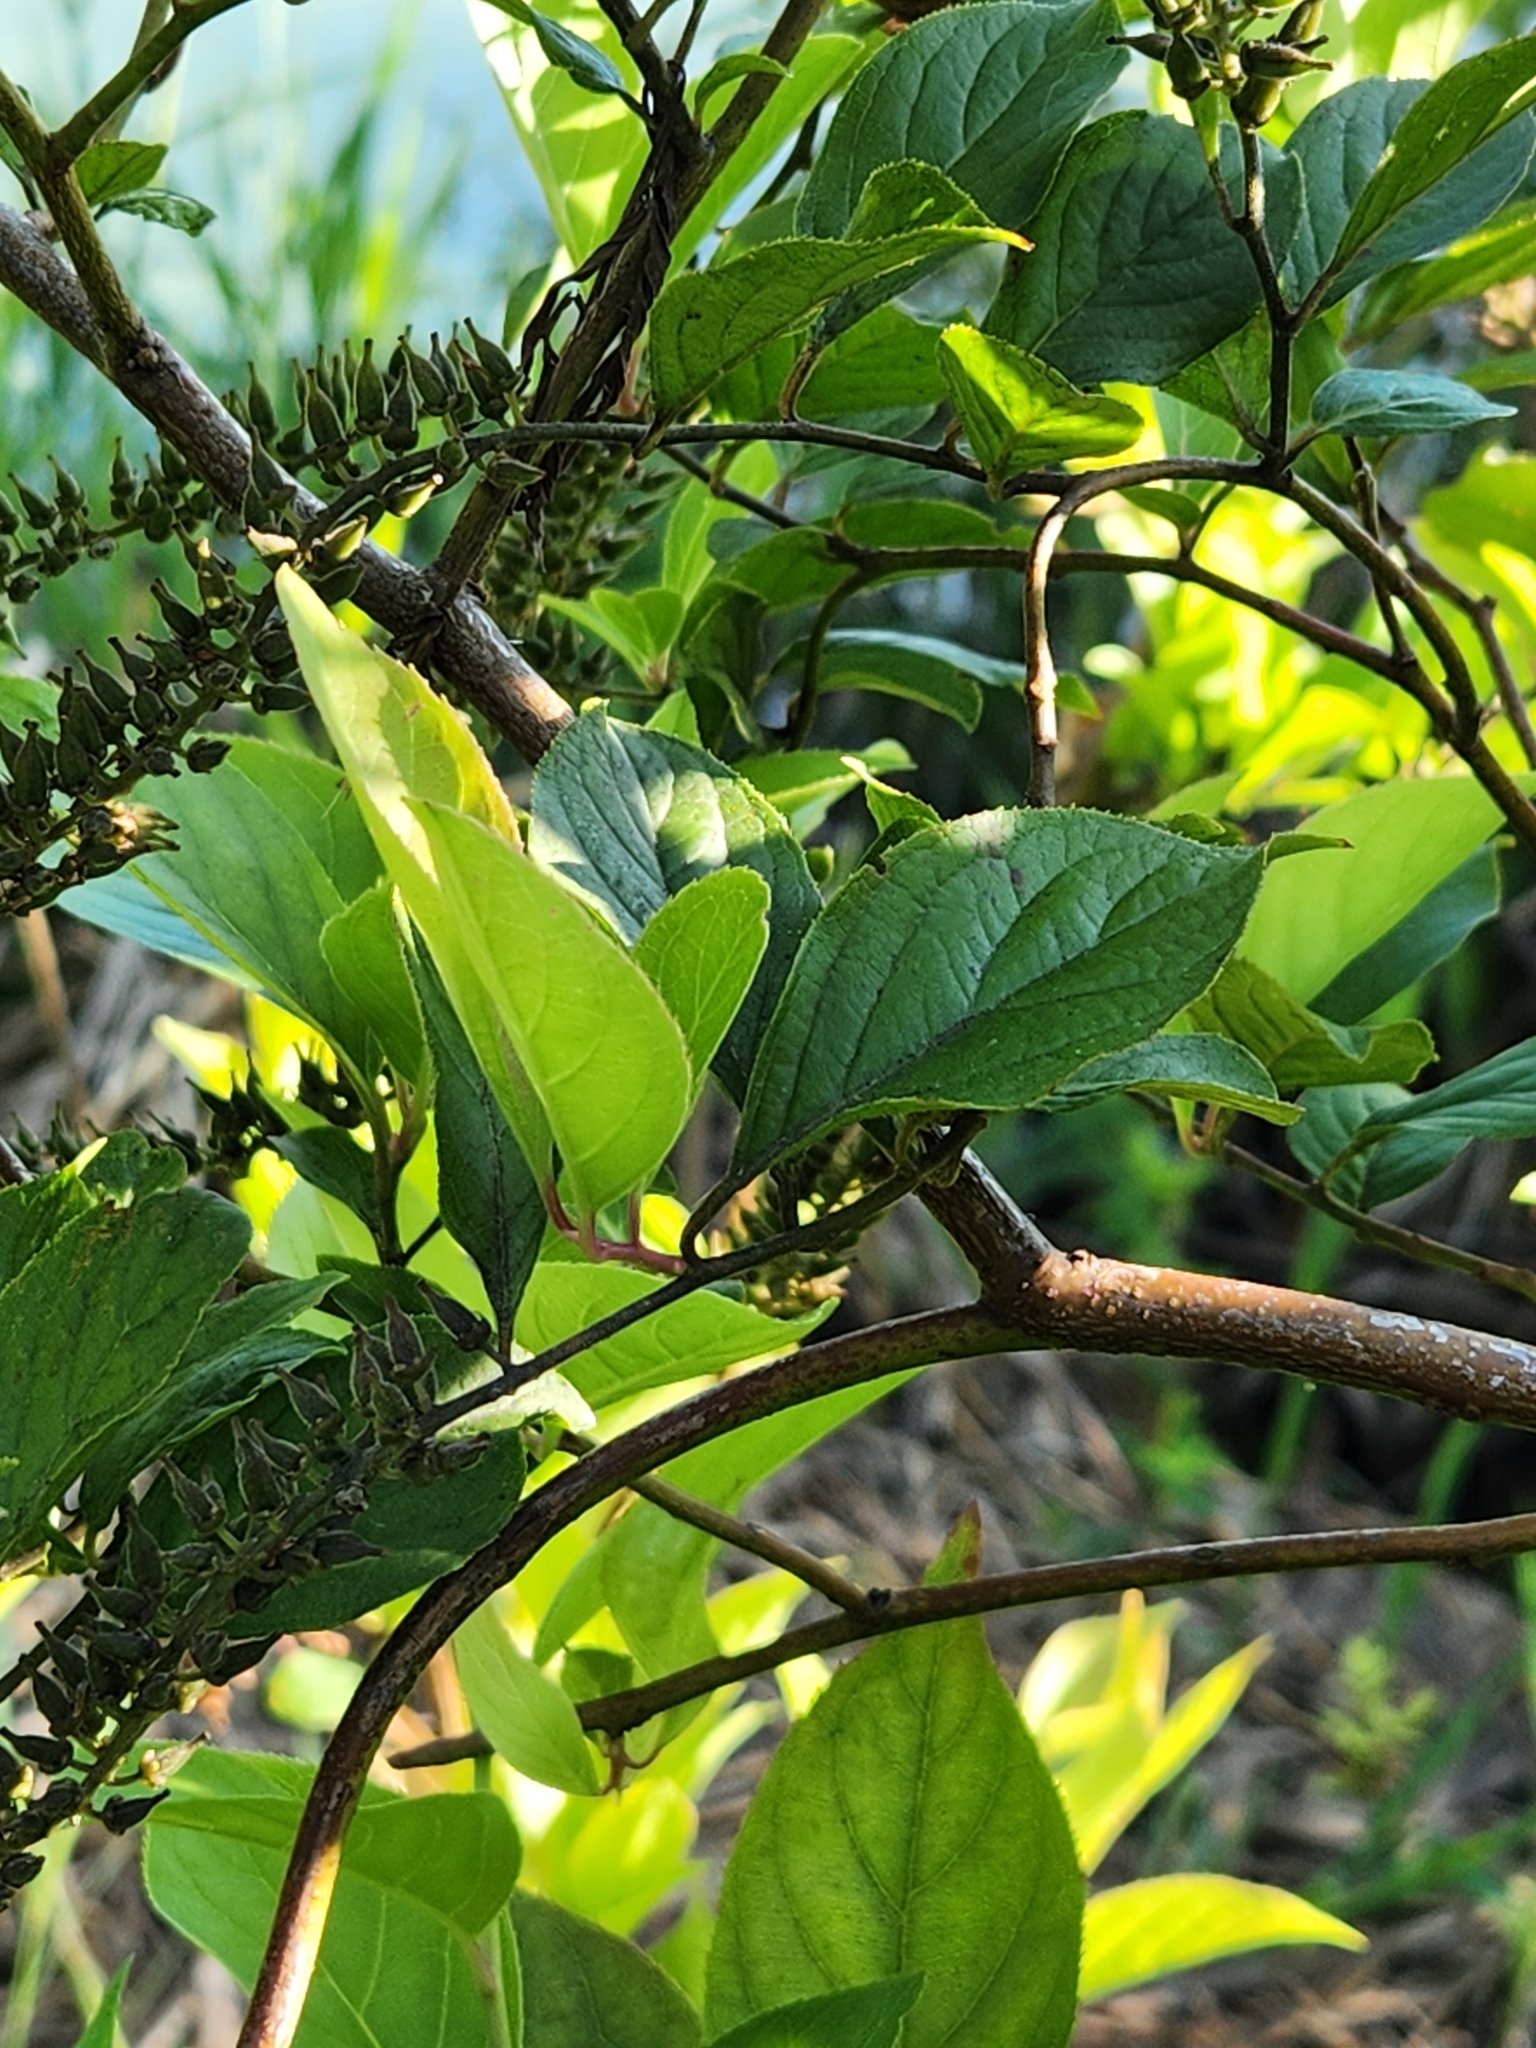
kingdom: Plantae
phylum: Tracheophyta
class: Magnoliopsida
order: Saxifragales
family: Iteaceae
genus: Itea
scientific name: Itea virginica
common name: Sweetspire
